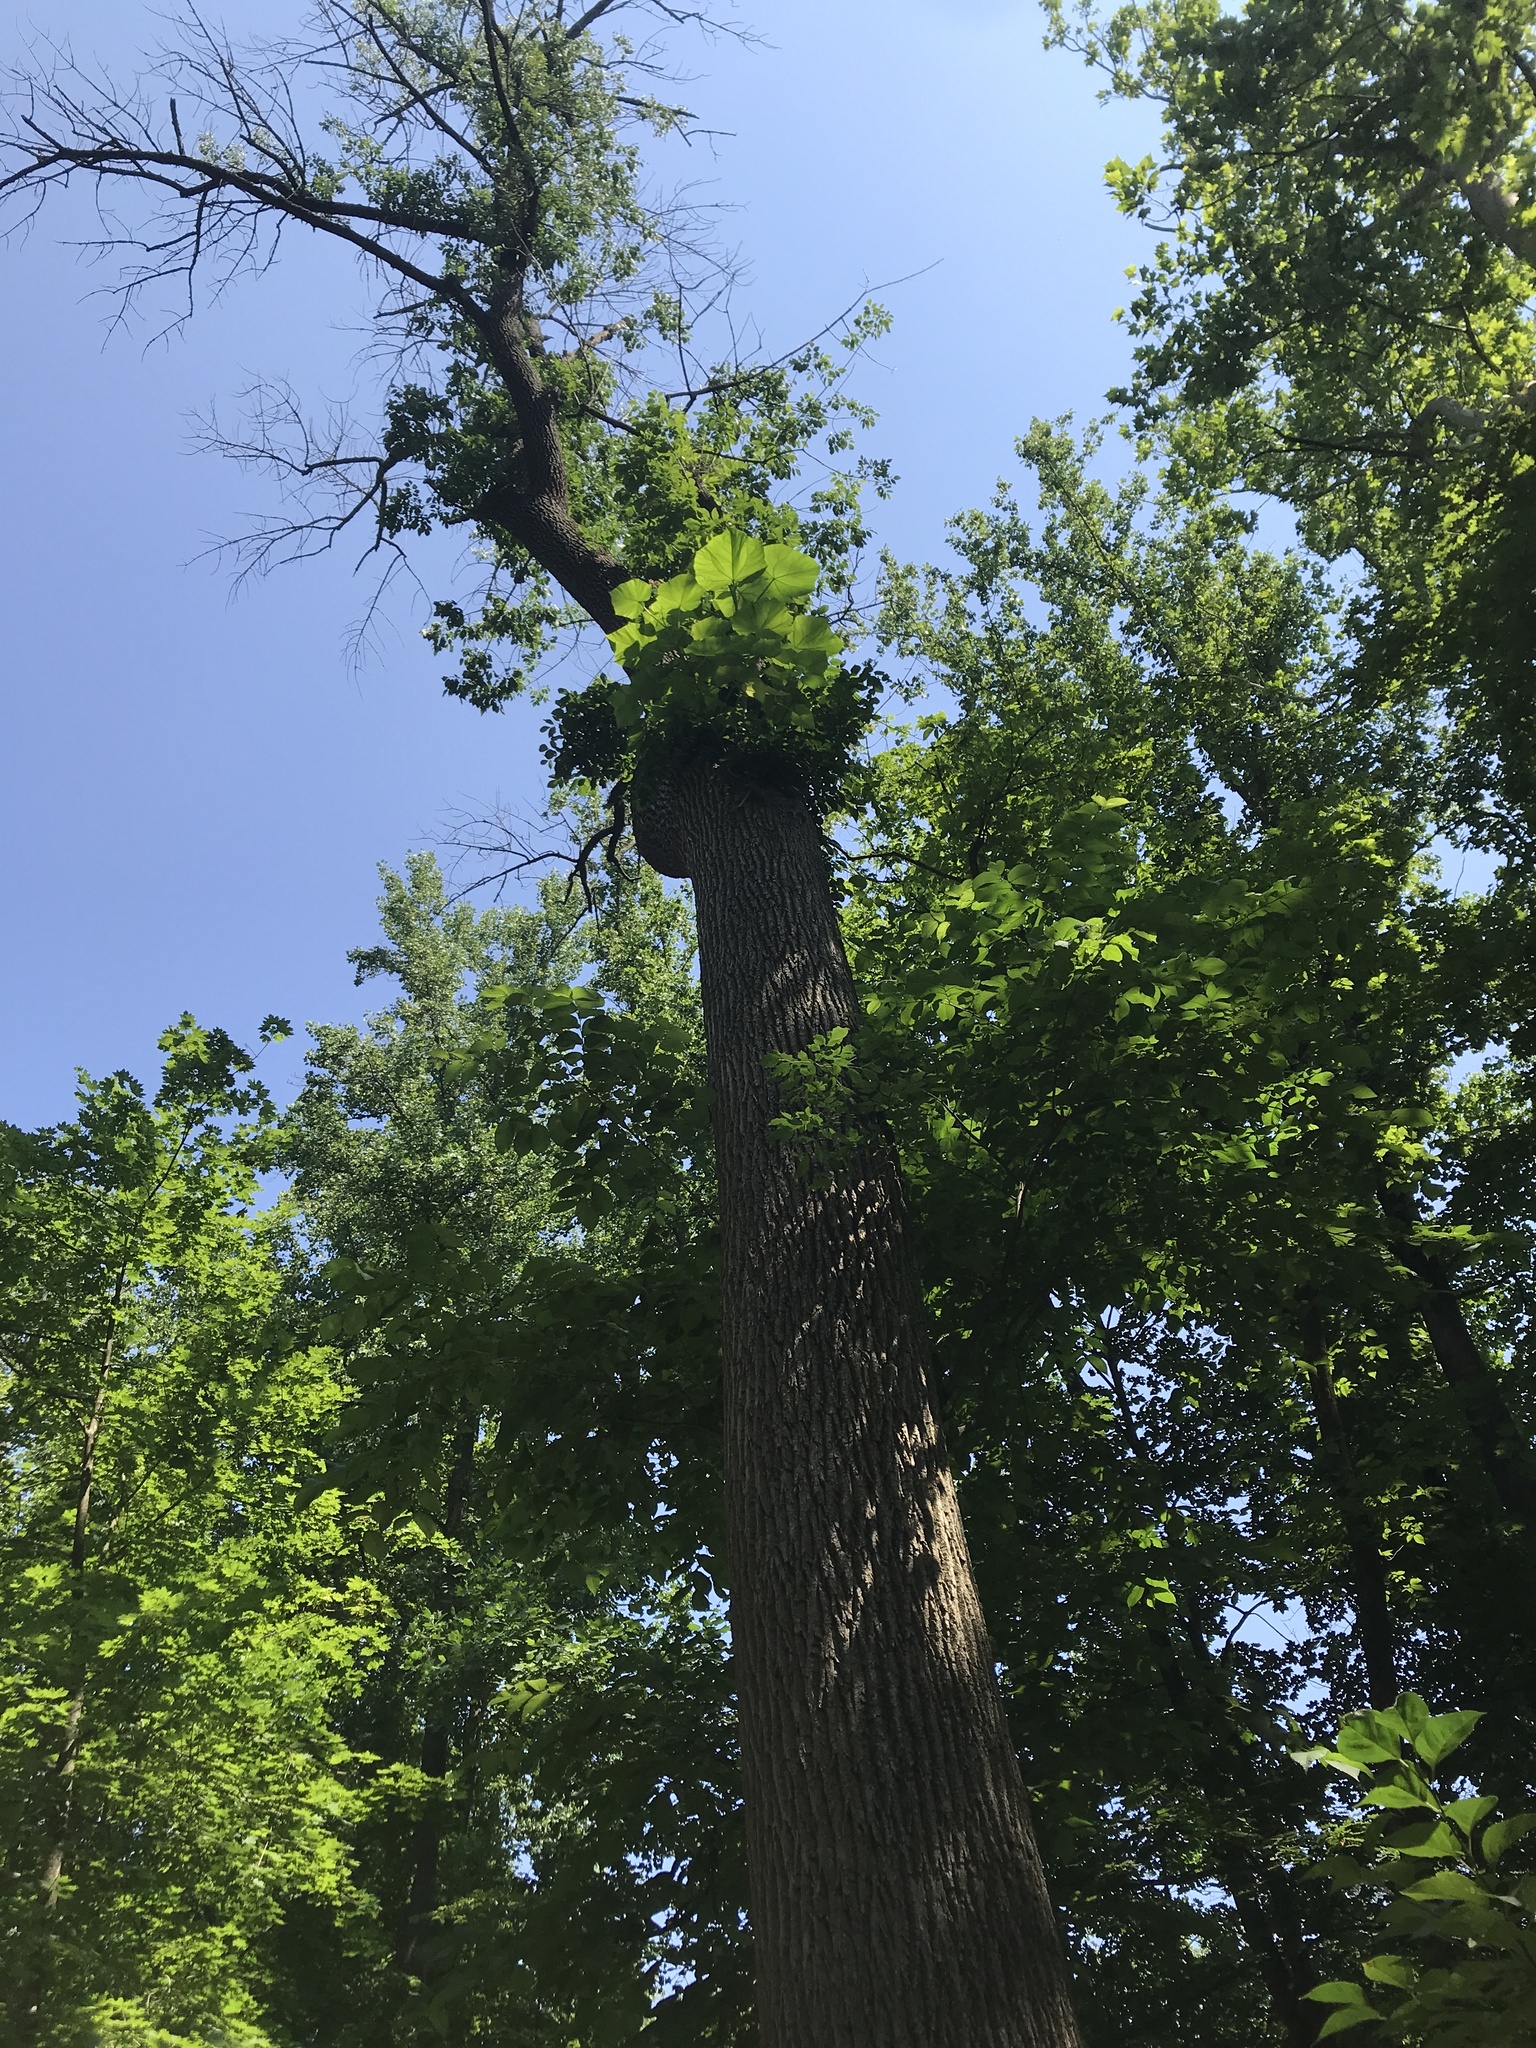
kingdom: Plantae
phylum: Tracheophyta
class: Magnoliopsida
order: Lamiales
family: Paulowniaceae
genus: Paulownia
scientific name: Paulownia tomentosa
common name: Foxglove-tree
